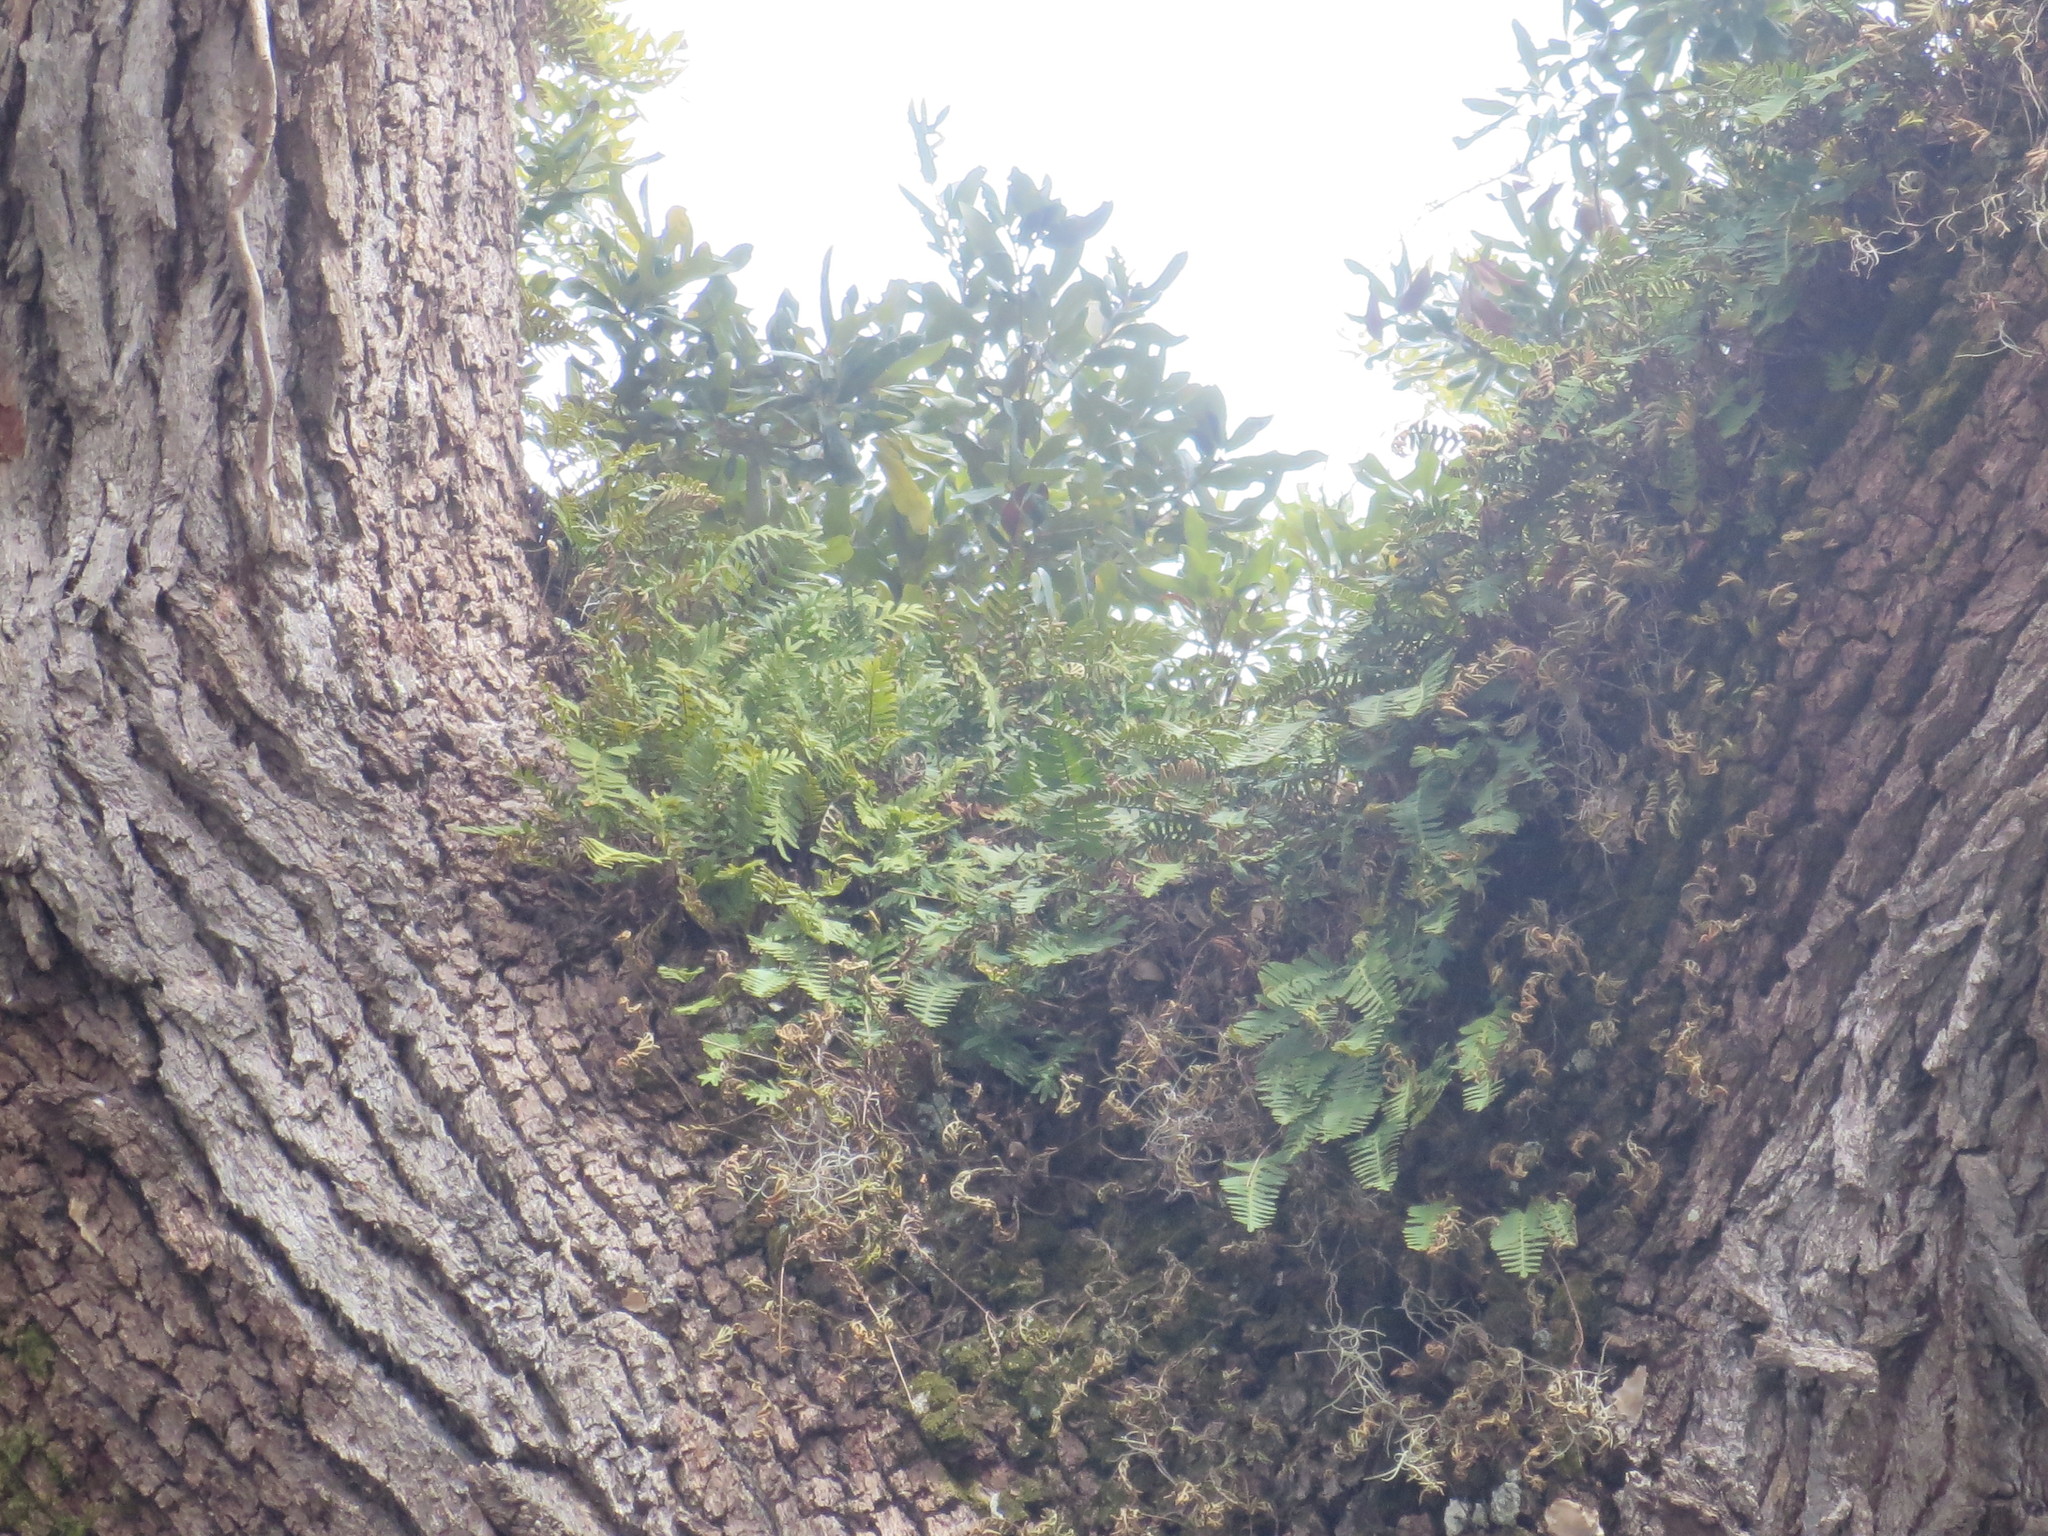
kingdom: Plantae
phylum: Tracheophyta
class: Polypodiopsida
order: Polypodiales
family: Polypodiaceae
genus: Pleopeltis
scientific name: Pleopeltis michauxiana
